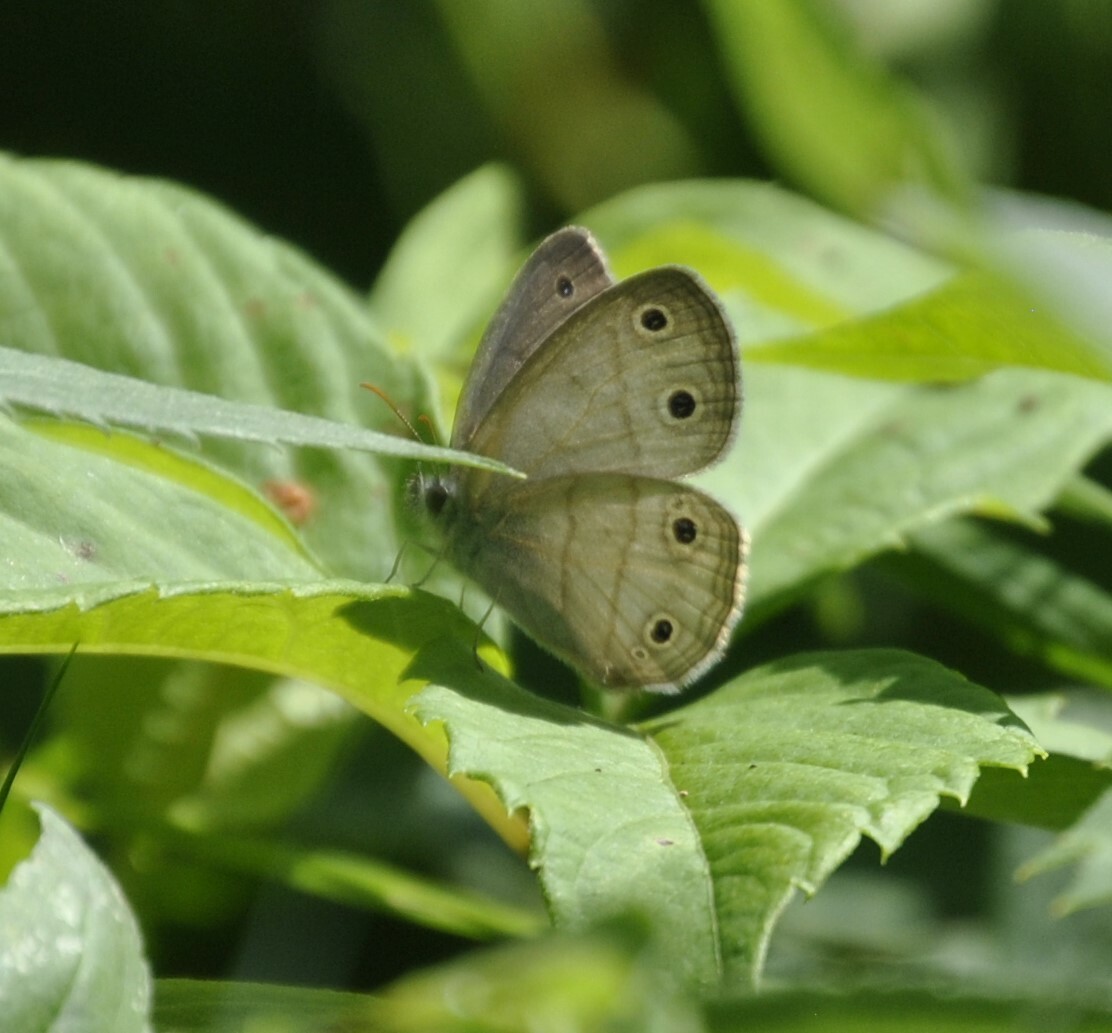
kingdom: Animalia
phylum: Arthropoda
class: Insecta
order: Lepidoptera
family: Nymphalidae
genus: Euptychia
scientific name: Euptychia cymela
